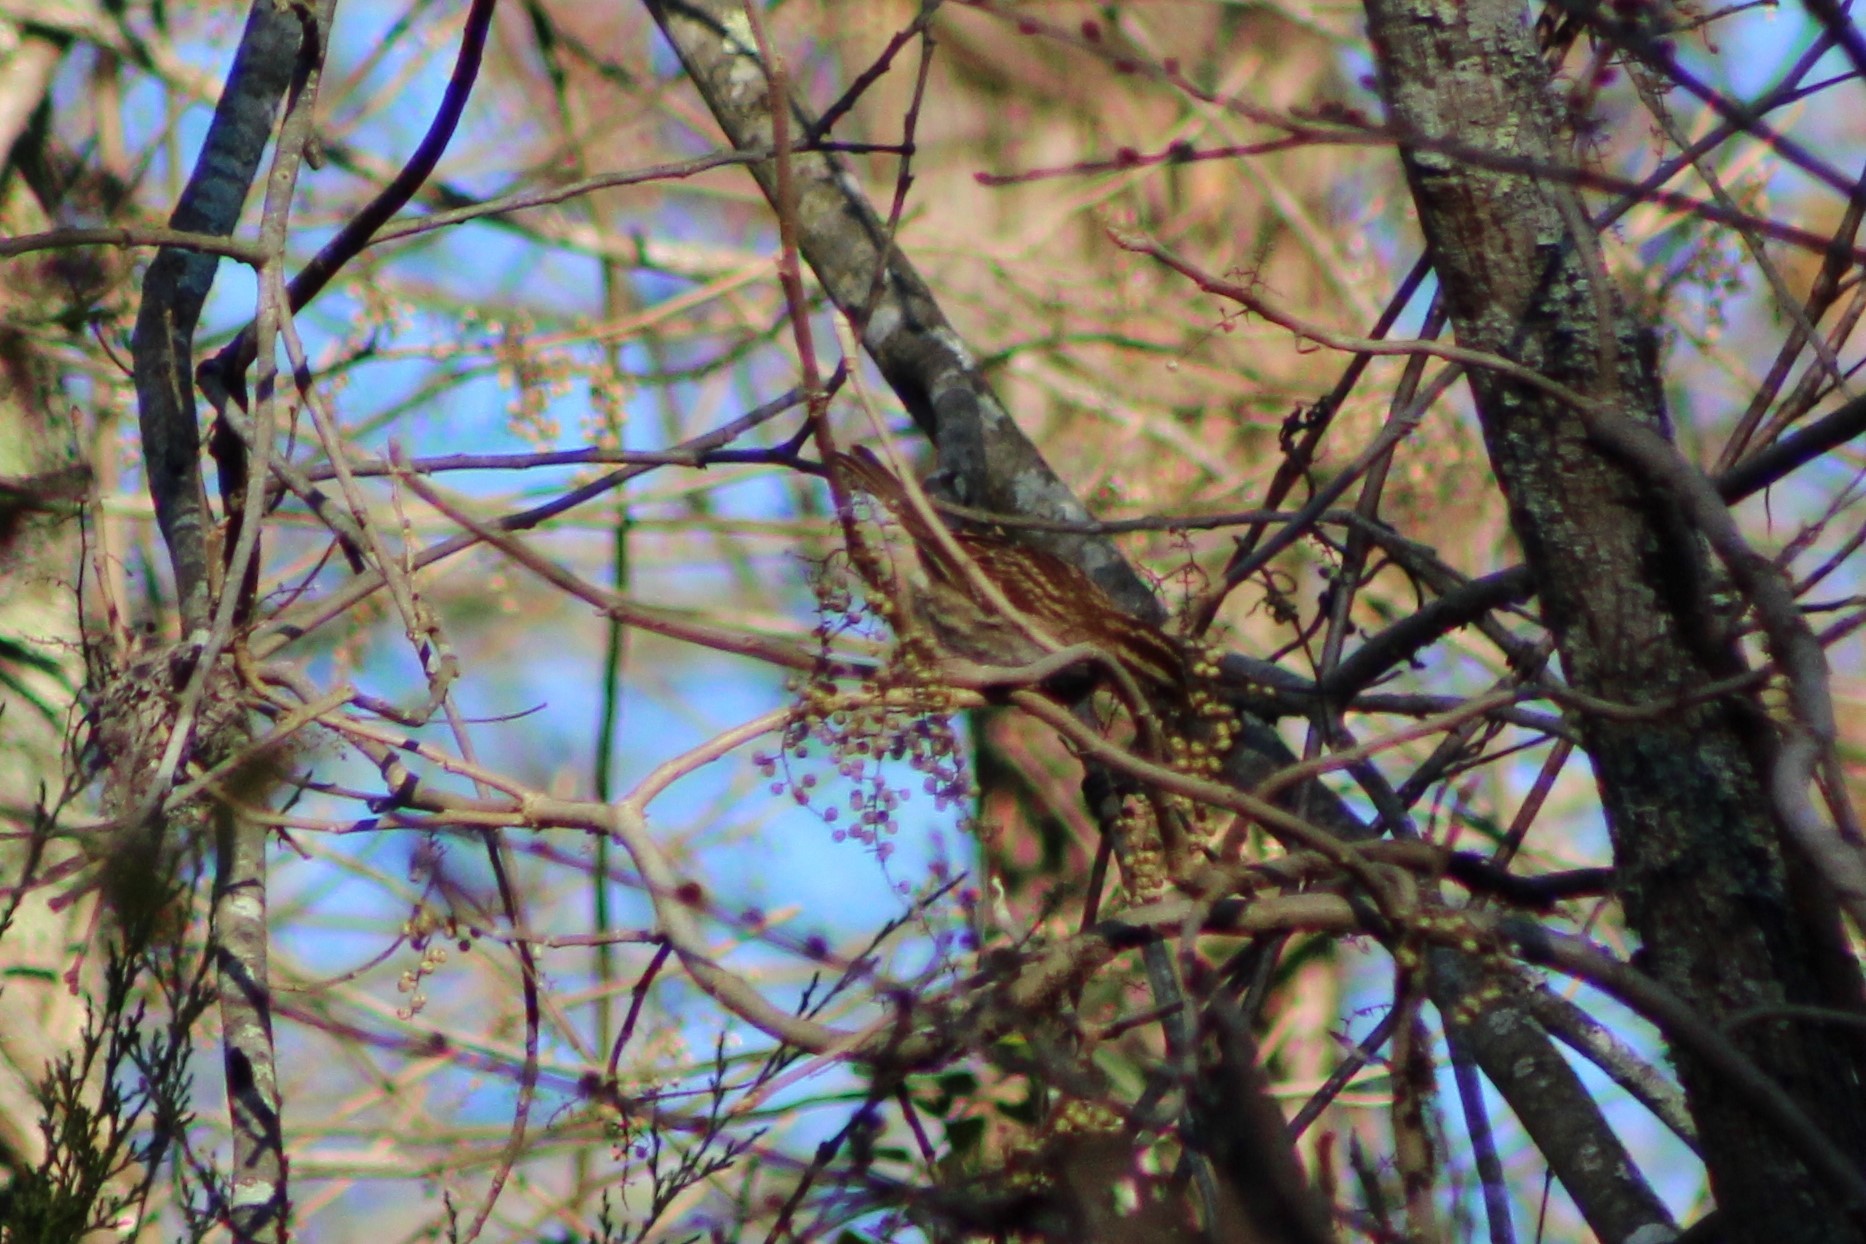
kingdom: Animalia
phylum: Chordata
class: Aves
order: Passeriformes
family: Passerellidae
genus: Zonotrichia
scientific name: Zonotrichia albicollis
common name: White-throated sparrow
